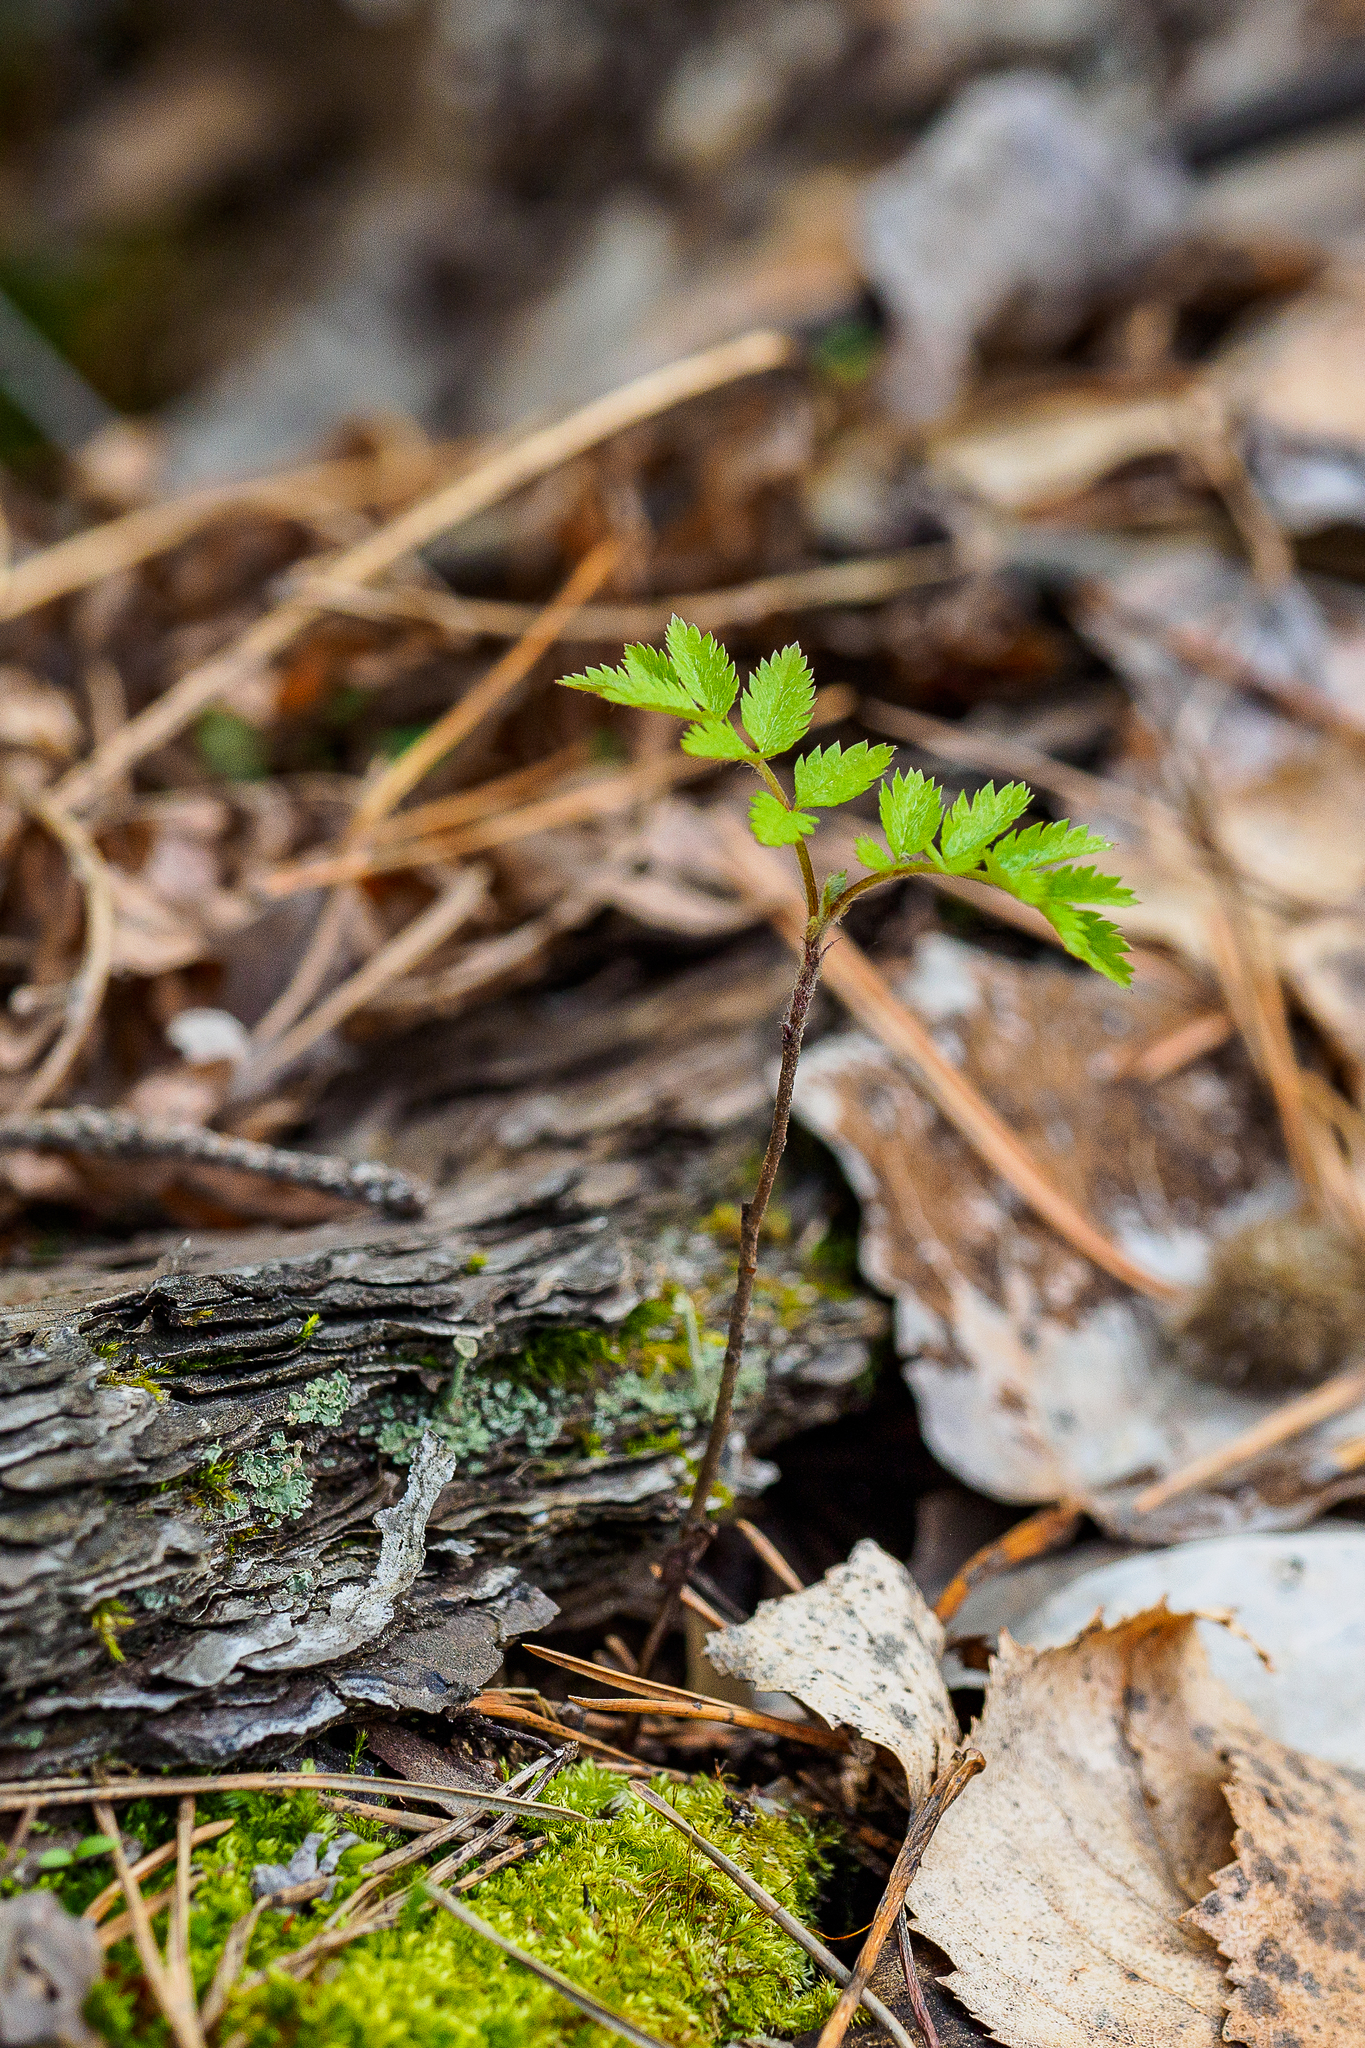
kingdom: Plantae
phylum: Tracheophyta
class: Magnoliopsida
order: Rosales
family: Rosaceae
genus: Sorbus
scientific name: Sorbus aucuparia
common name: Rowan
